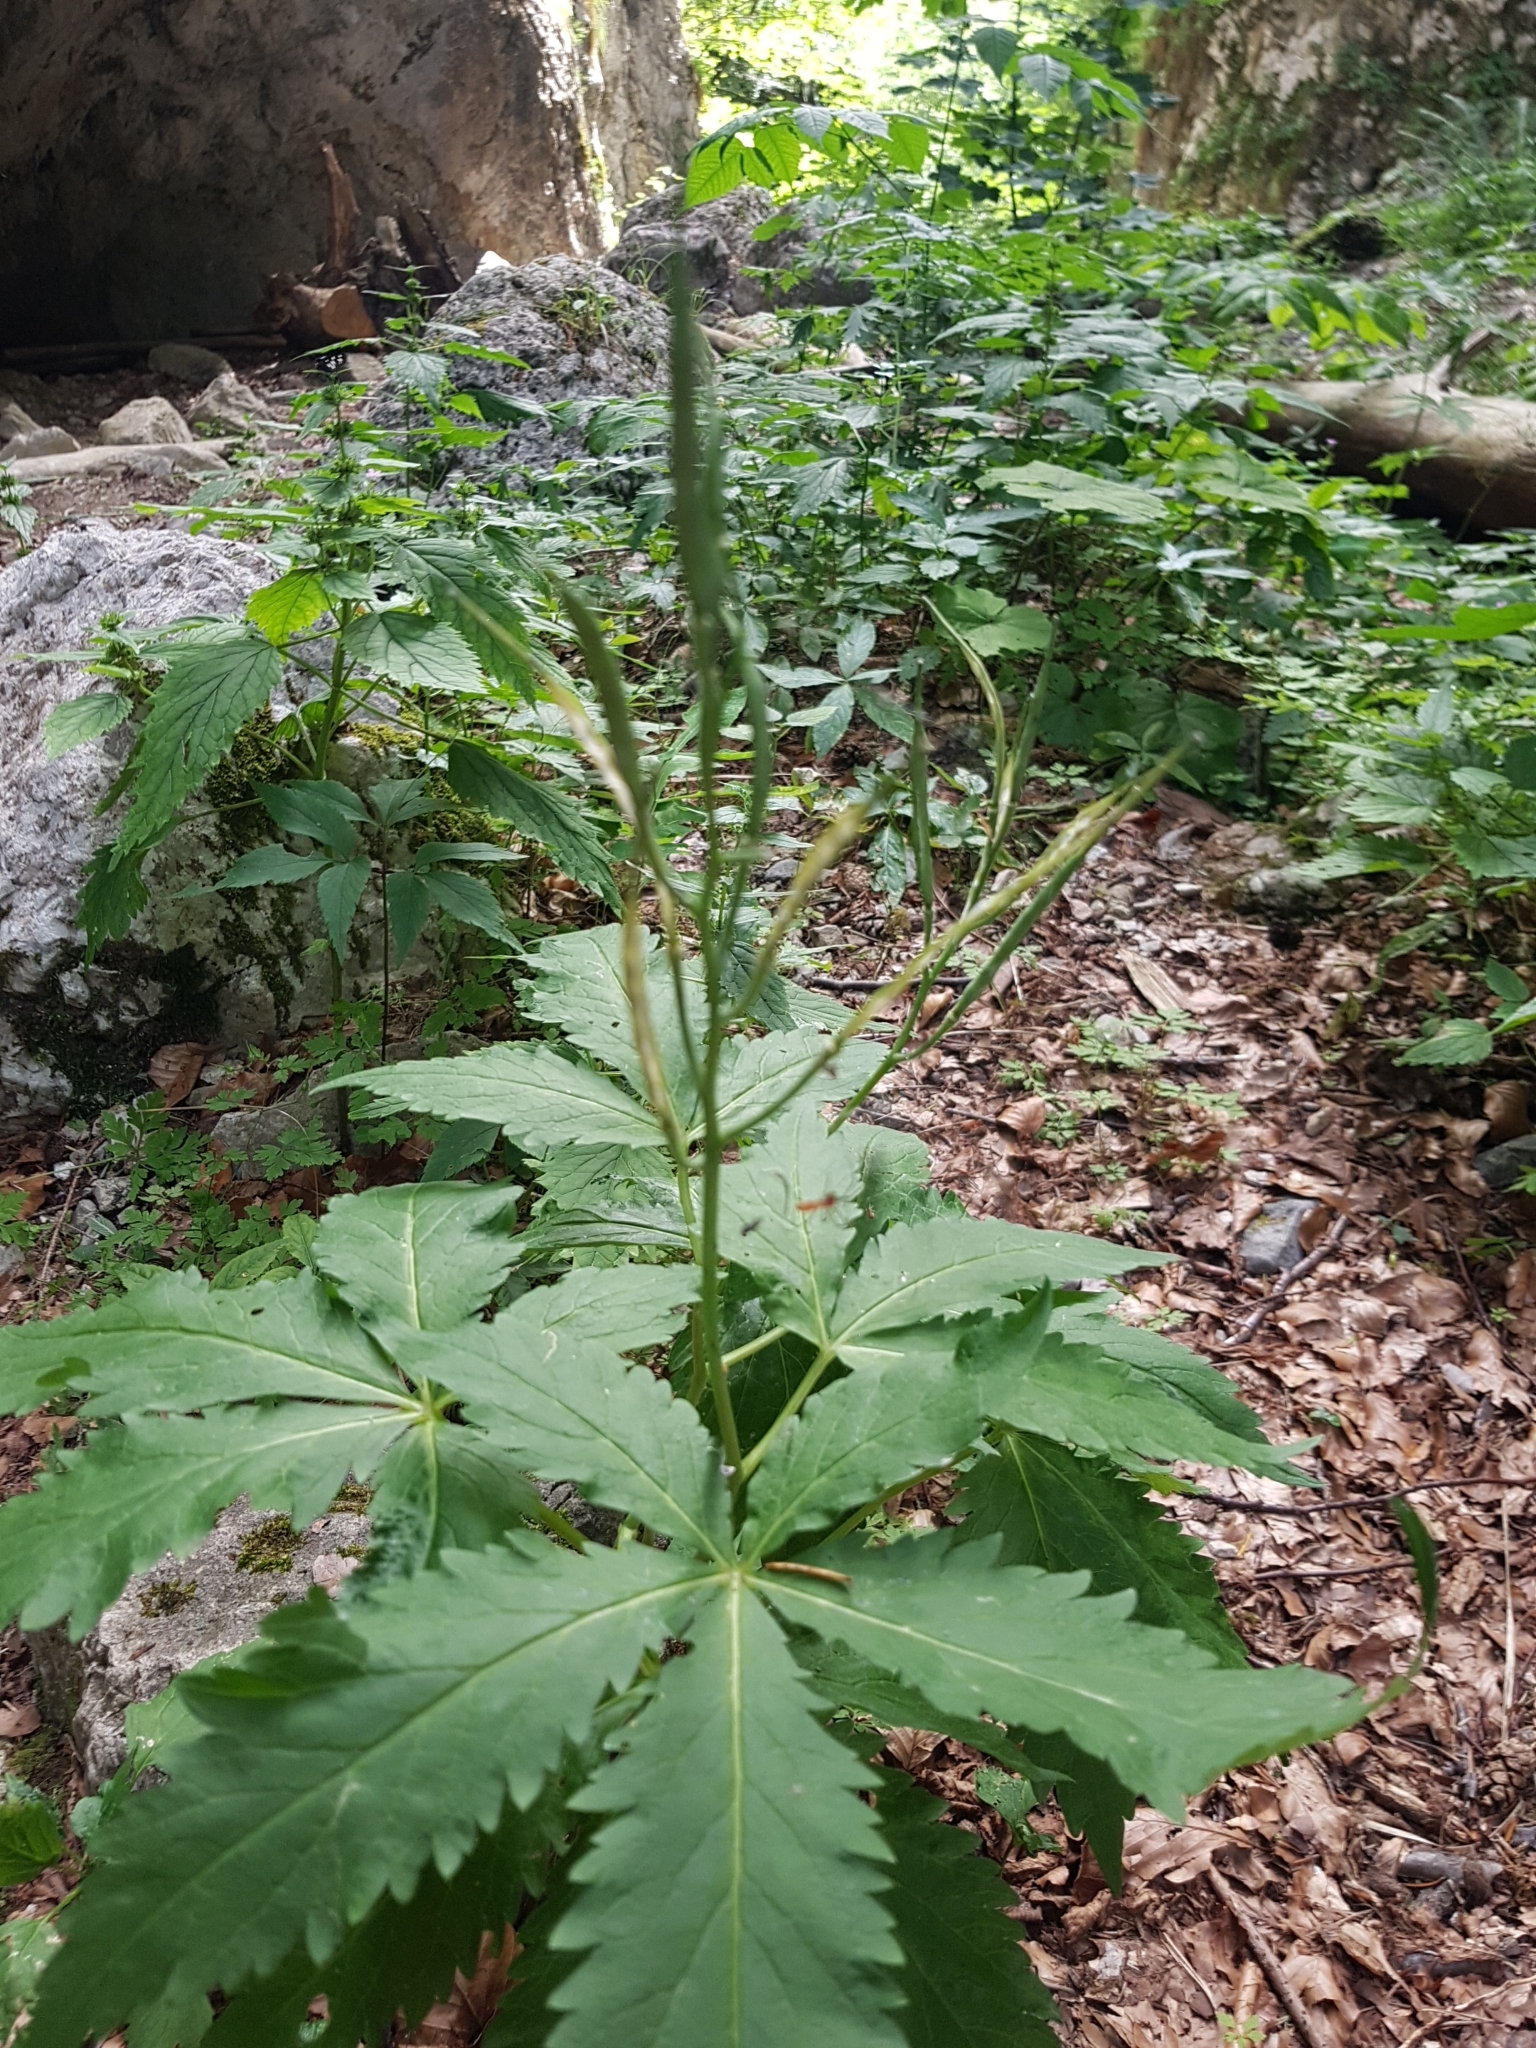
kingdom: Plantae
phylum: Tracheophyta
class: Magnoliopsida
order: Brassicales
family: Brassicaceae
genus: Cardamine
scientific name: Cardamine pentaphyllos
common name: Five-leaflet bitter-cress
